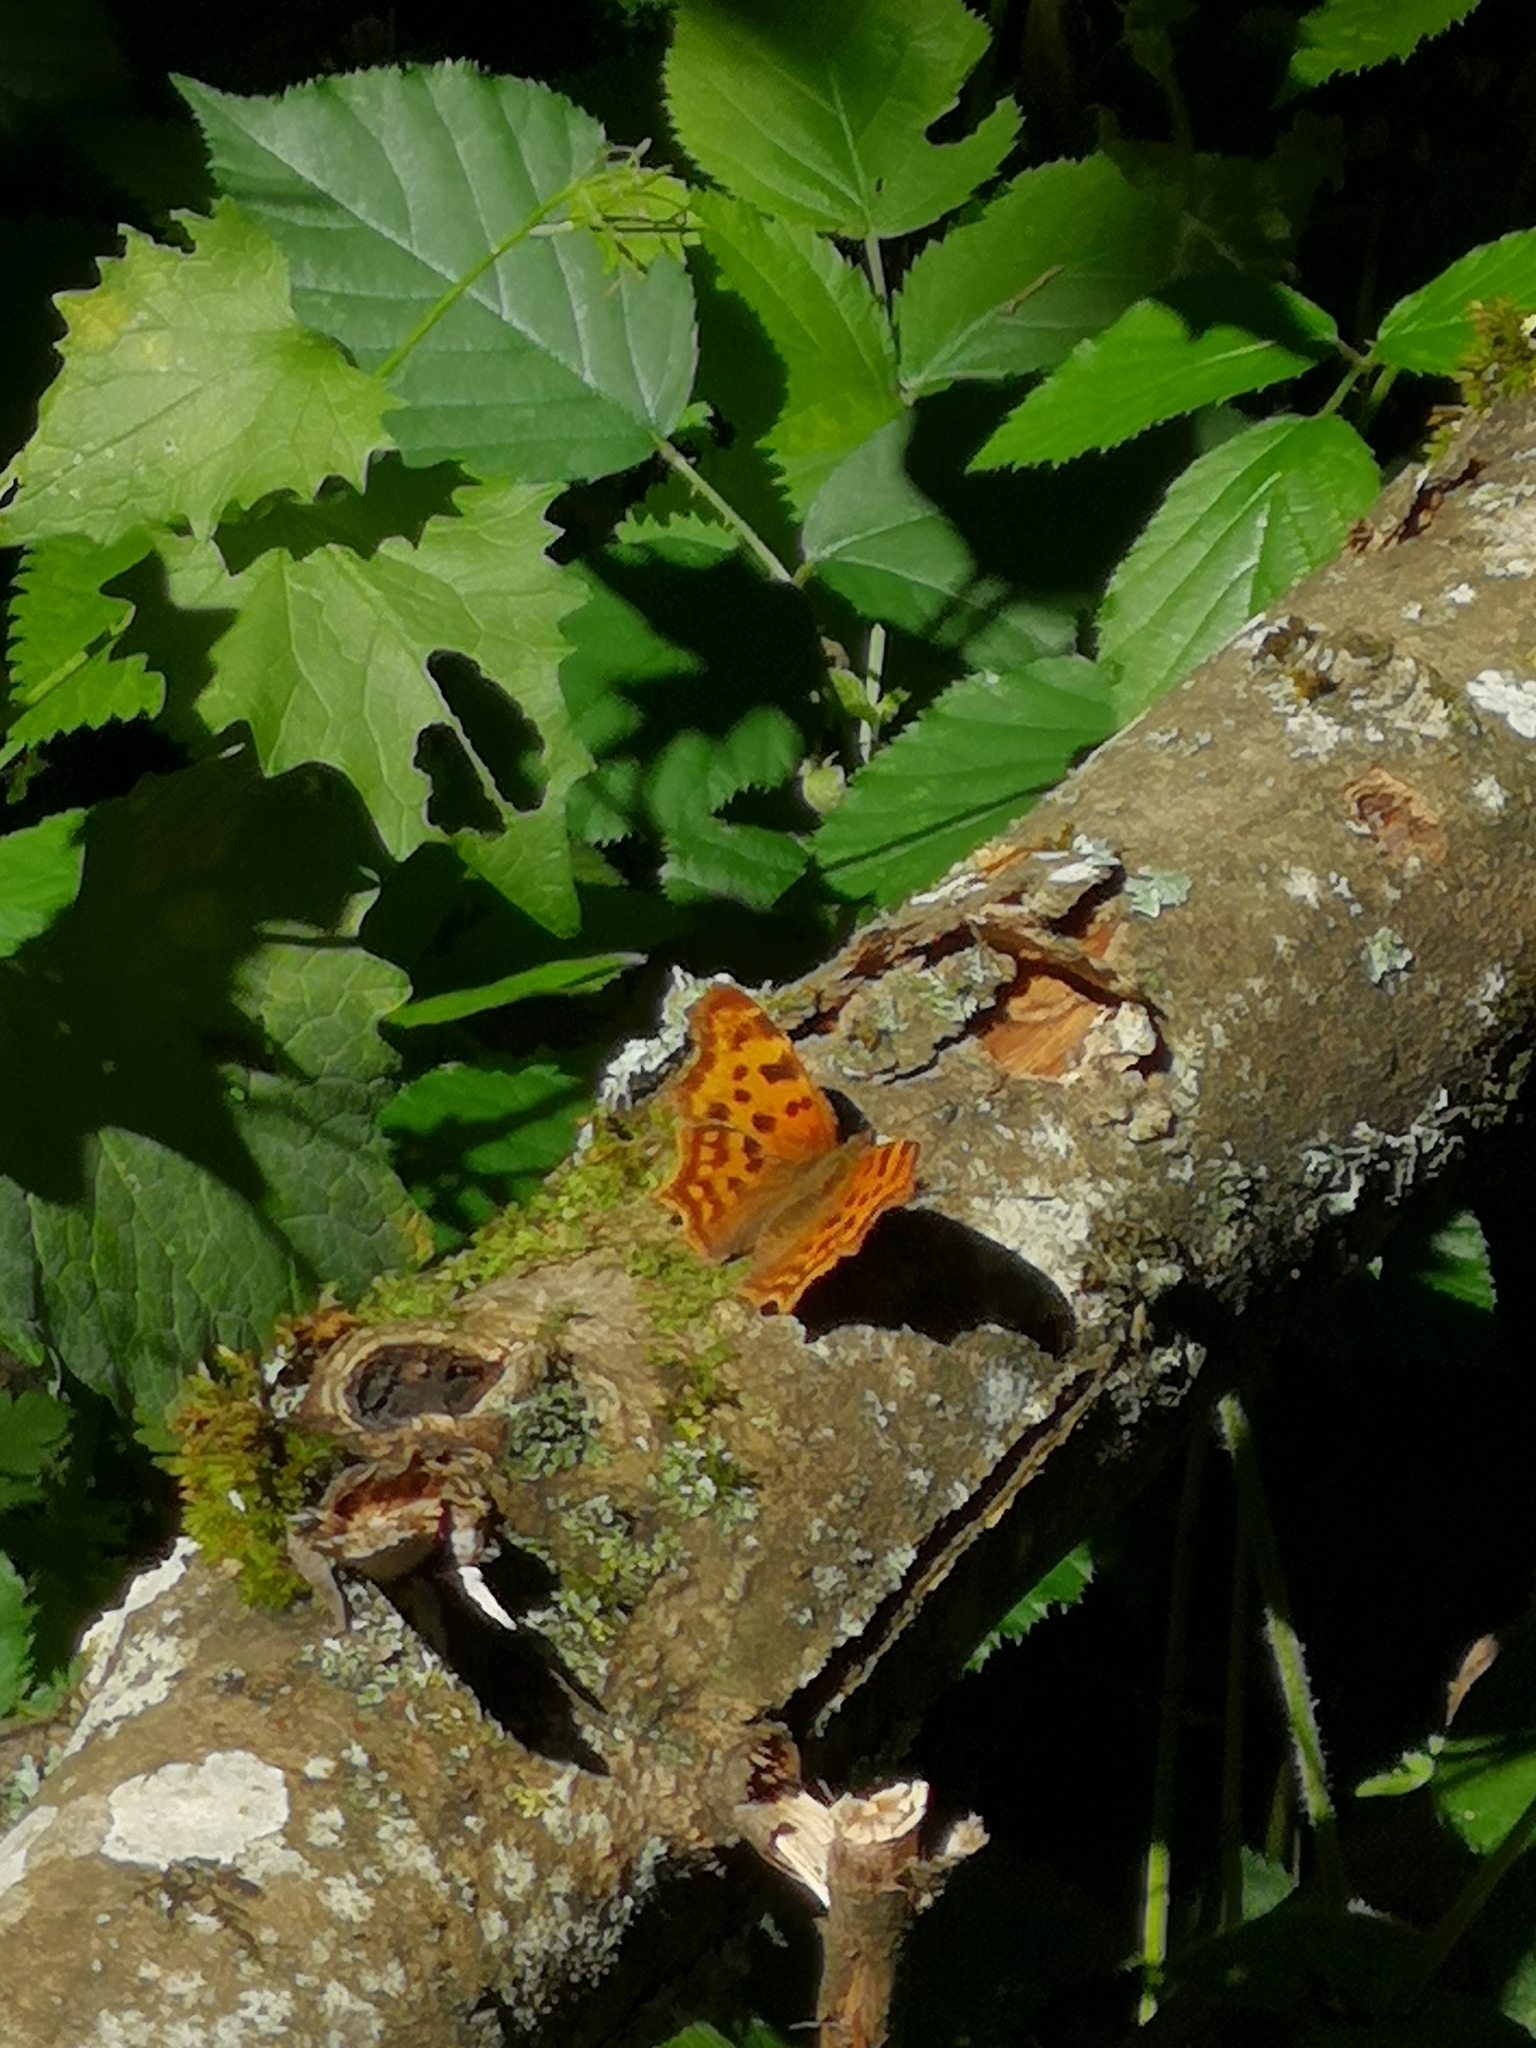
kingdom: Animalia
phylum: Arthropoda
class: Insecta
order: Lepidoptera
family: Nymphalidae
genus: Polygonia
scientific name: Polygonia c-album
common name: Comma
